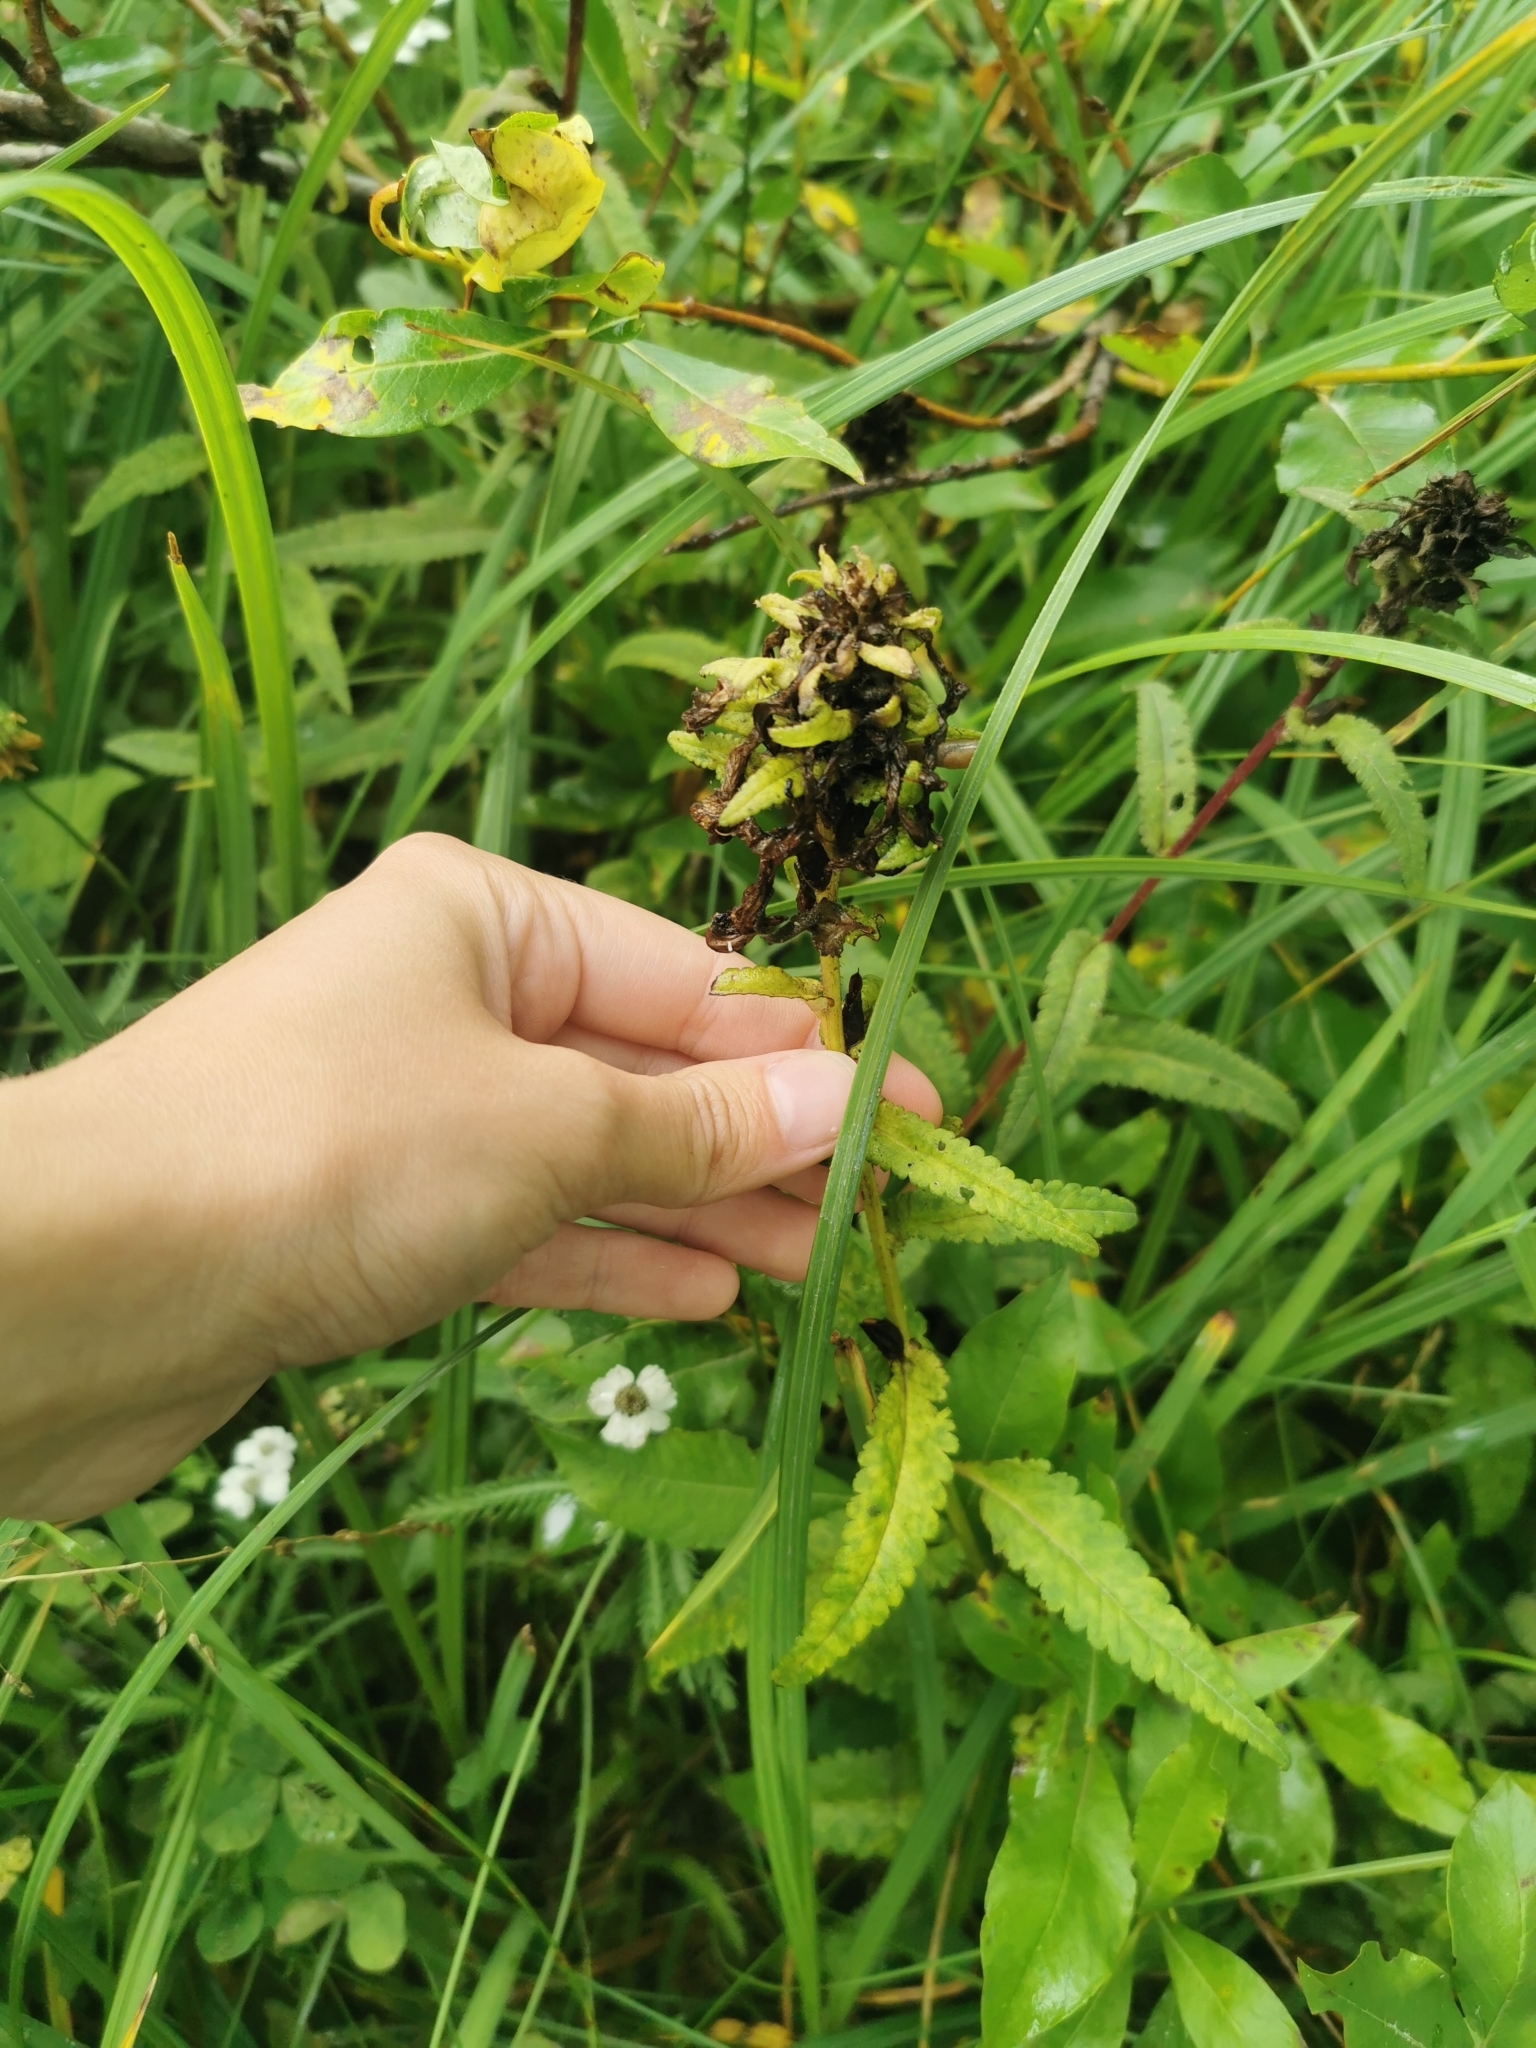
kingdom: Plantae
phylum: Tracheophyta
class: Magnoliopsida
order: Lamiales
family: Orobanchaceae
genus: Pedicularis
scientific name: Pedicularis resupinata
